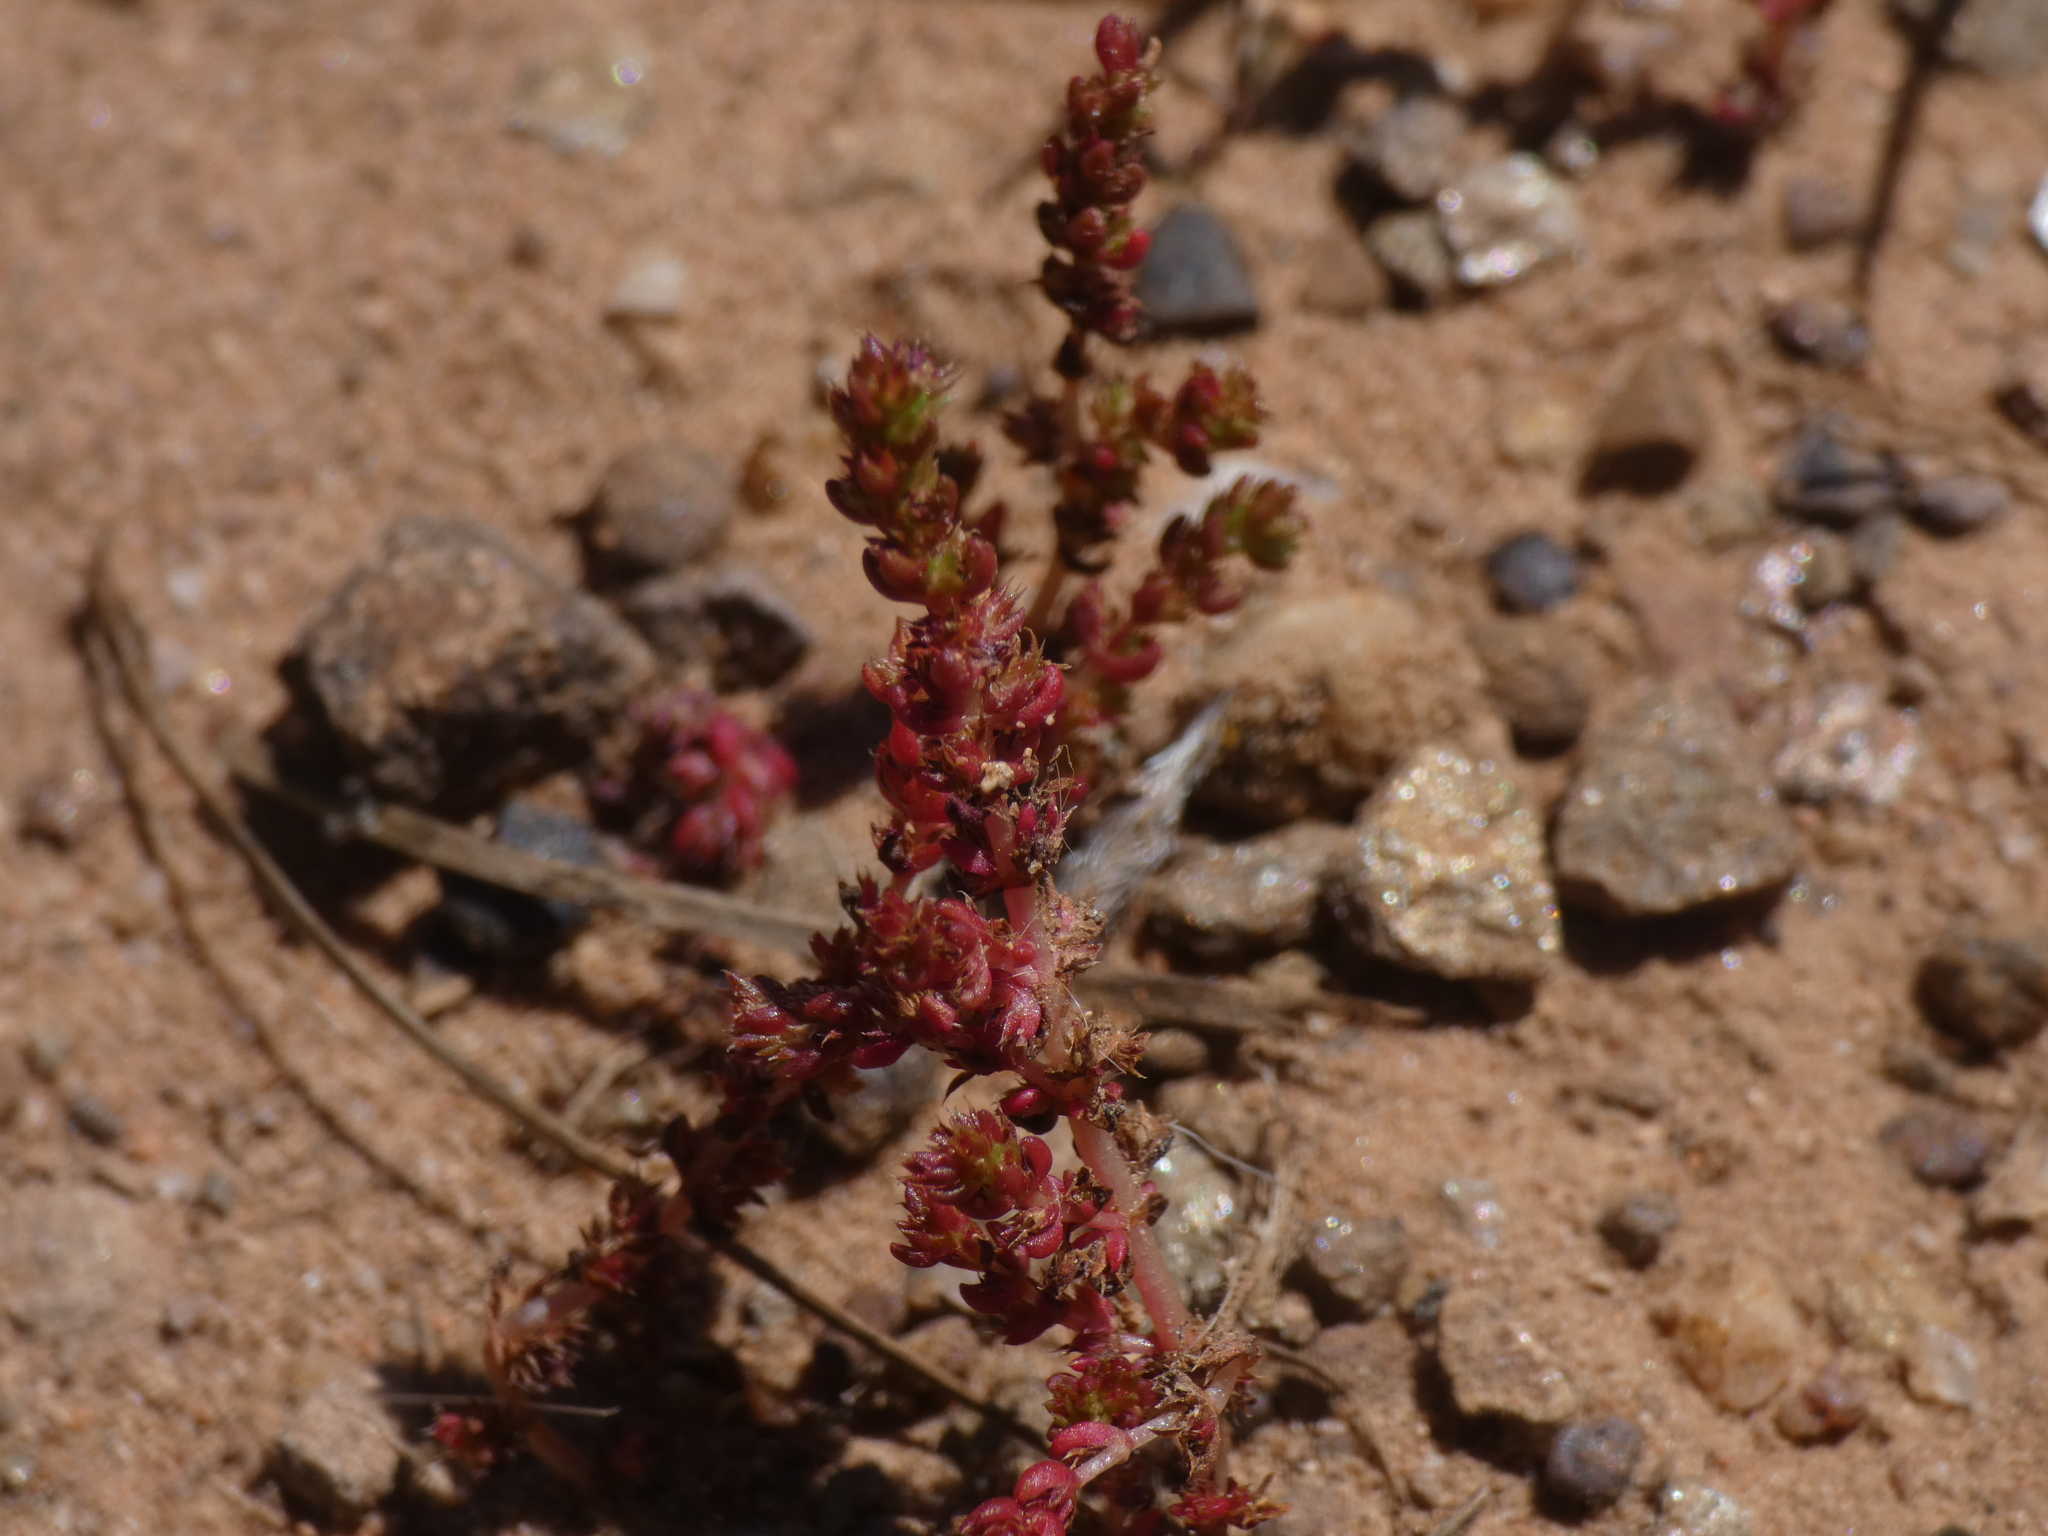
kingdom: Plantae
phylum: Tracheophyta
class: Magnoliopsida
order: Saxifragales
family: Crassulaceae
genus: Crassula
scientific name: Crassula tillaea
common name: Mossy stonecrop
